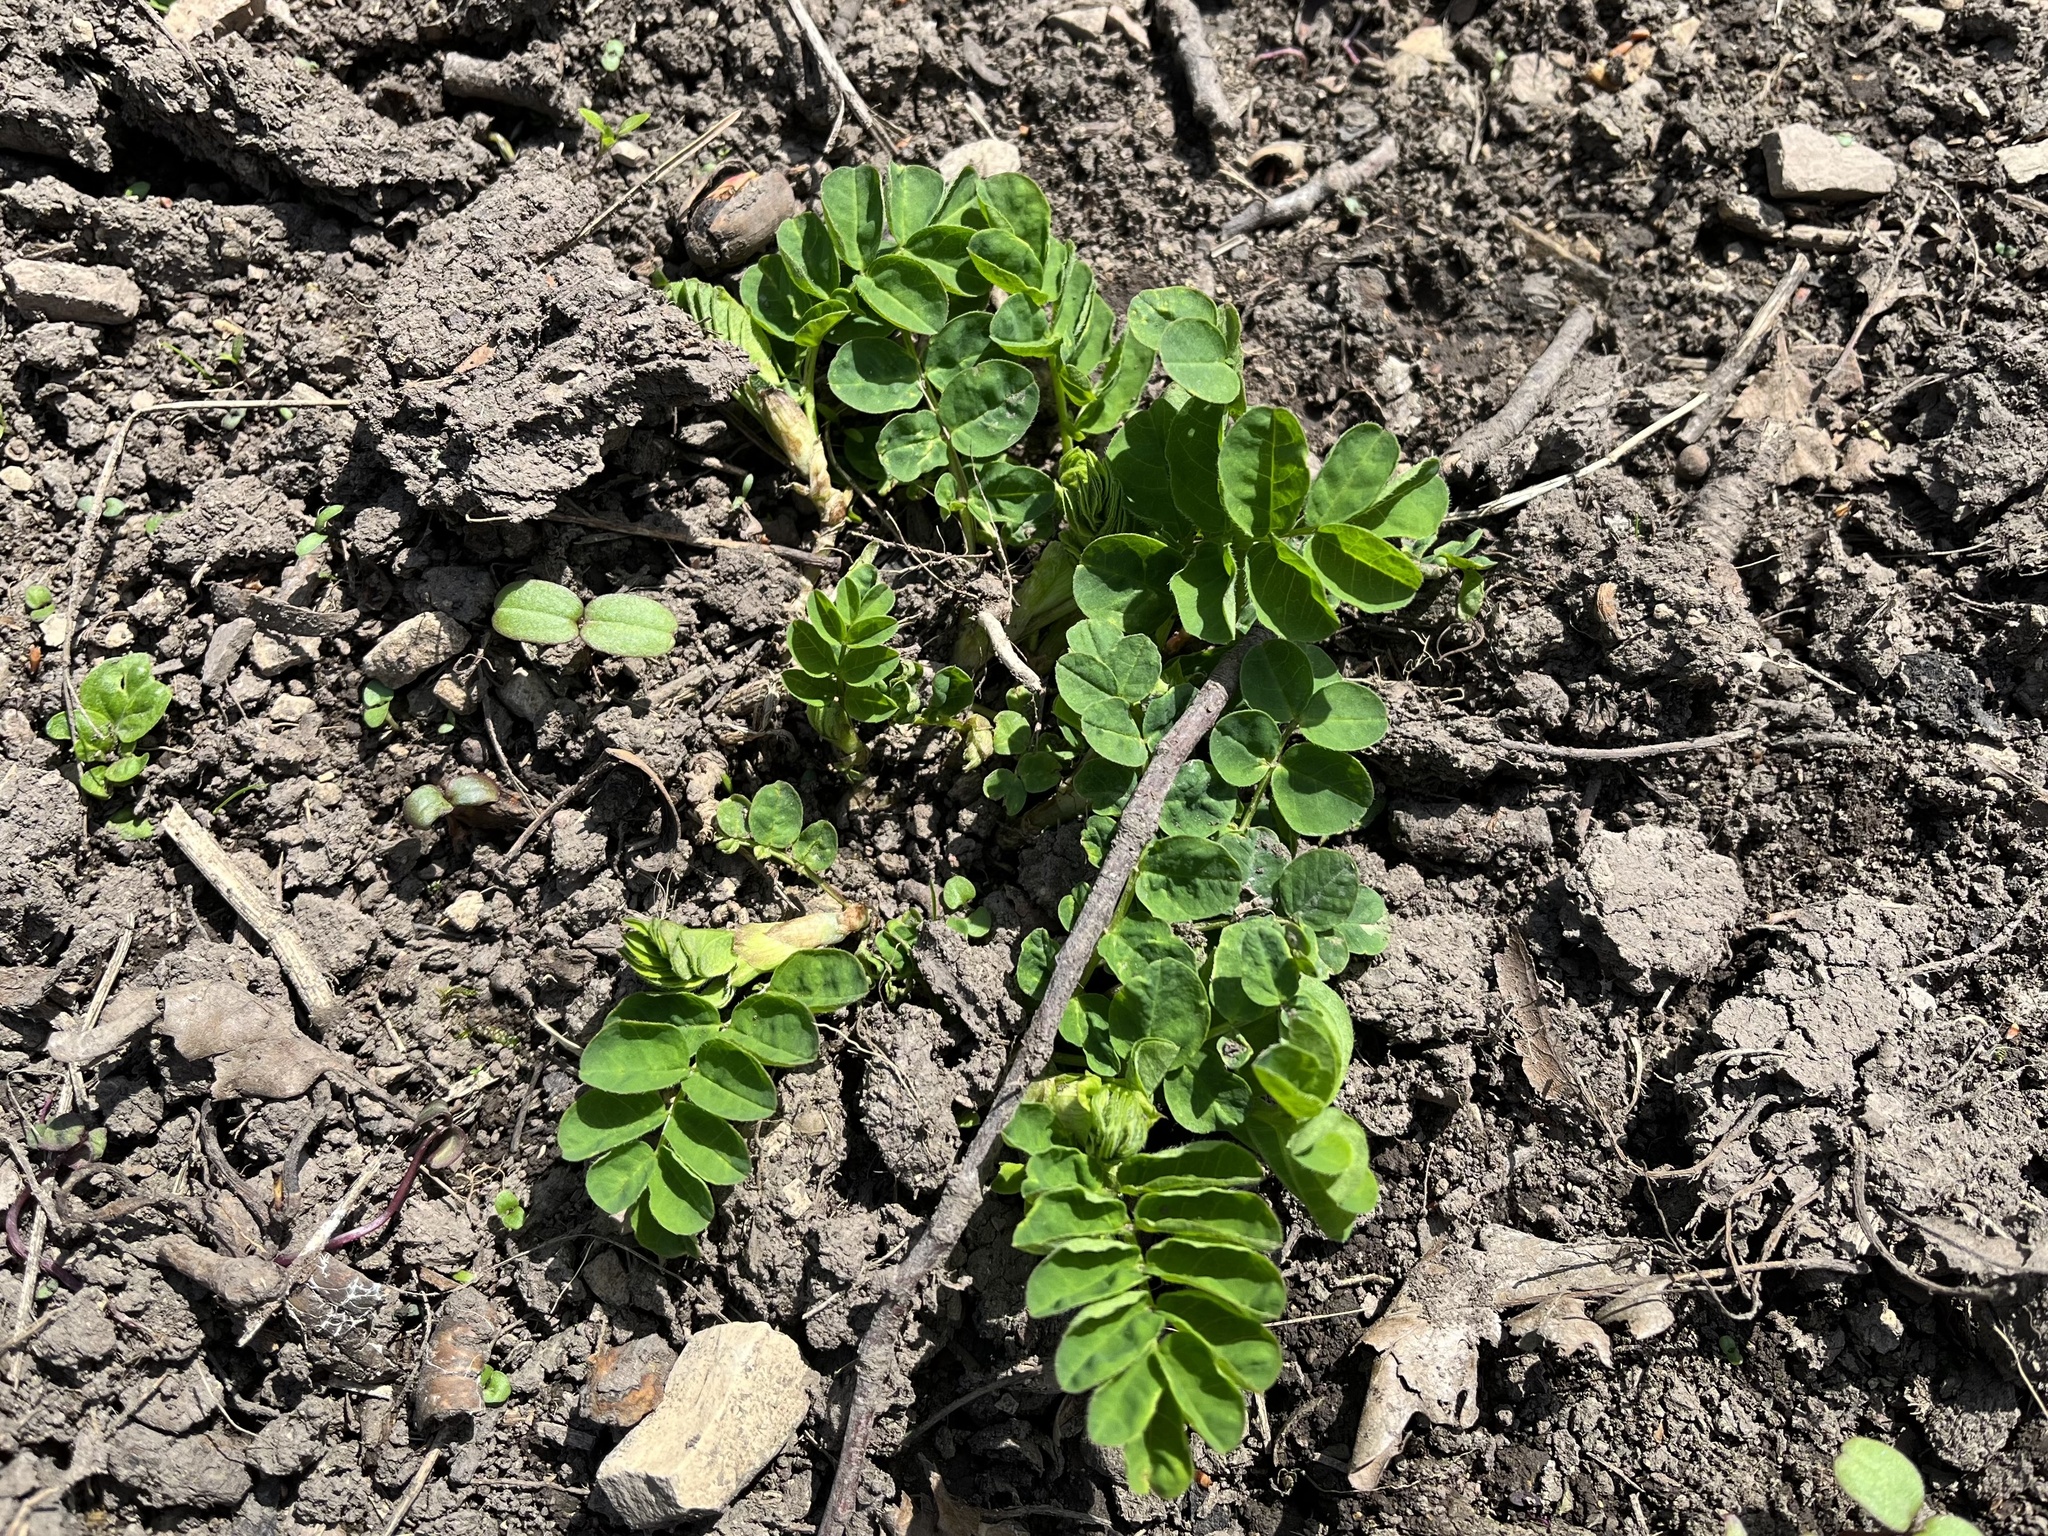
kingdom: Plantae
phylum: Tracheophyta
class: Magnoliopsida
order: Fabales
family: Fabaceae
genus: Astragalus
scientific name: Astragalus glycyphyllos
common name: Wild liquorice
